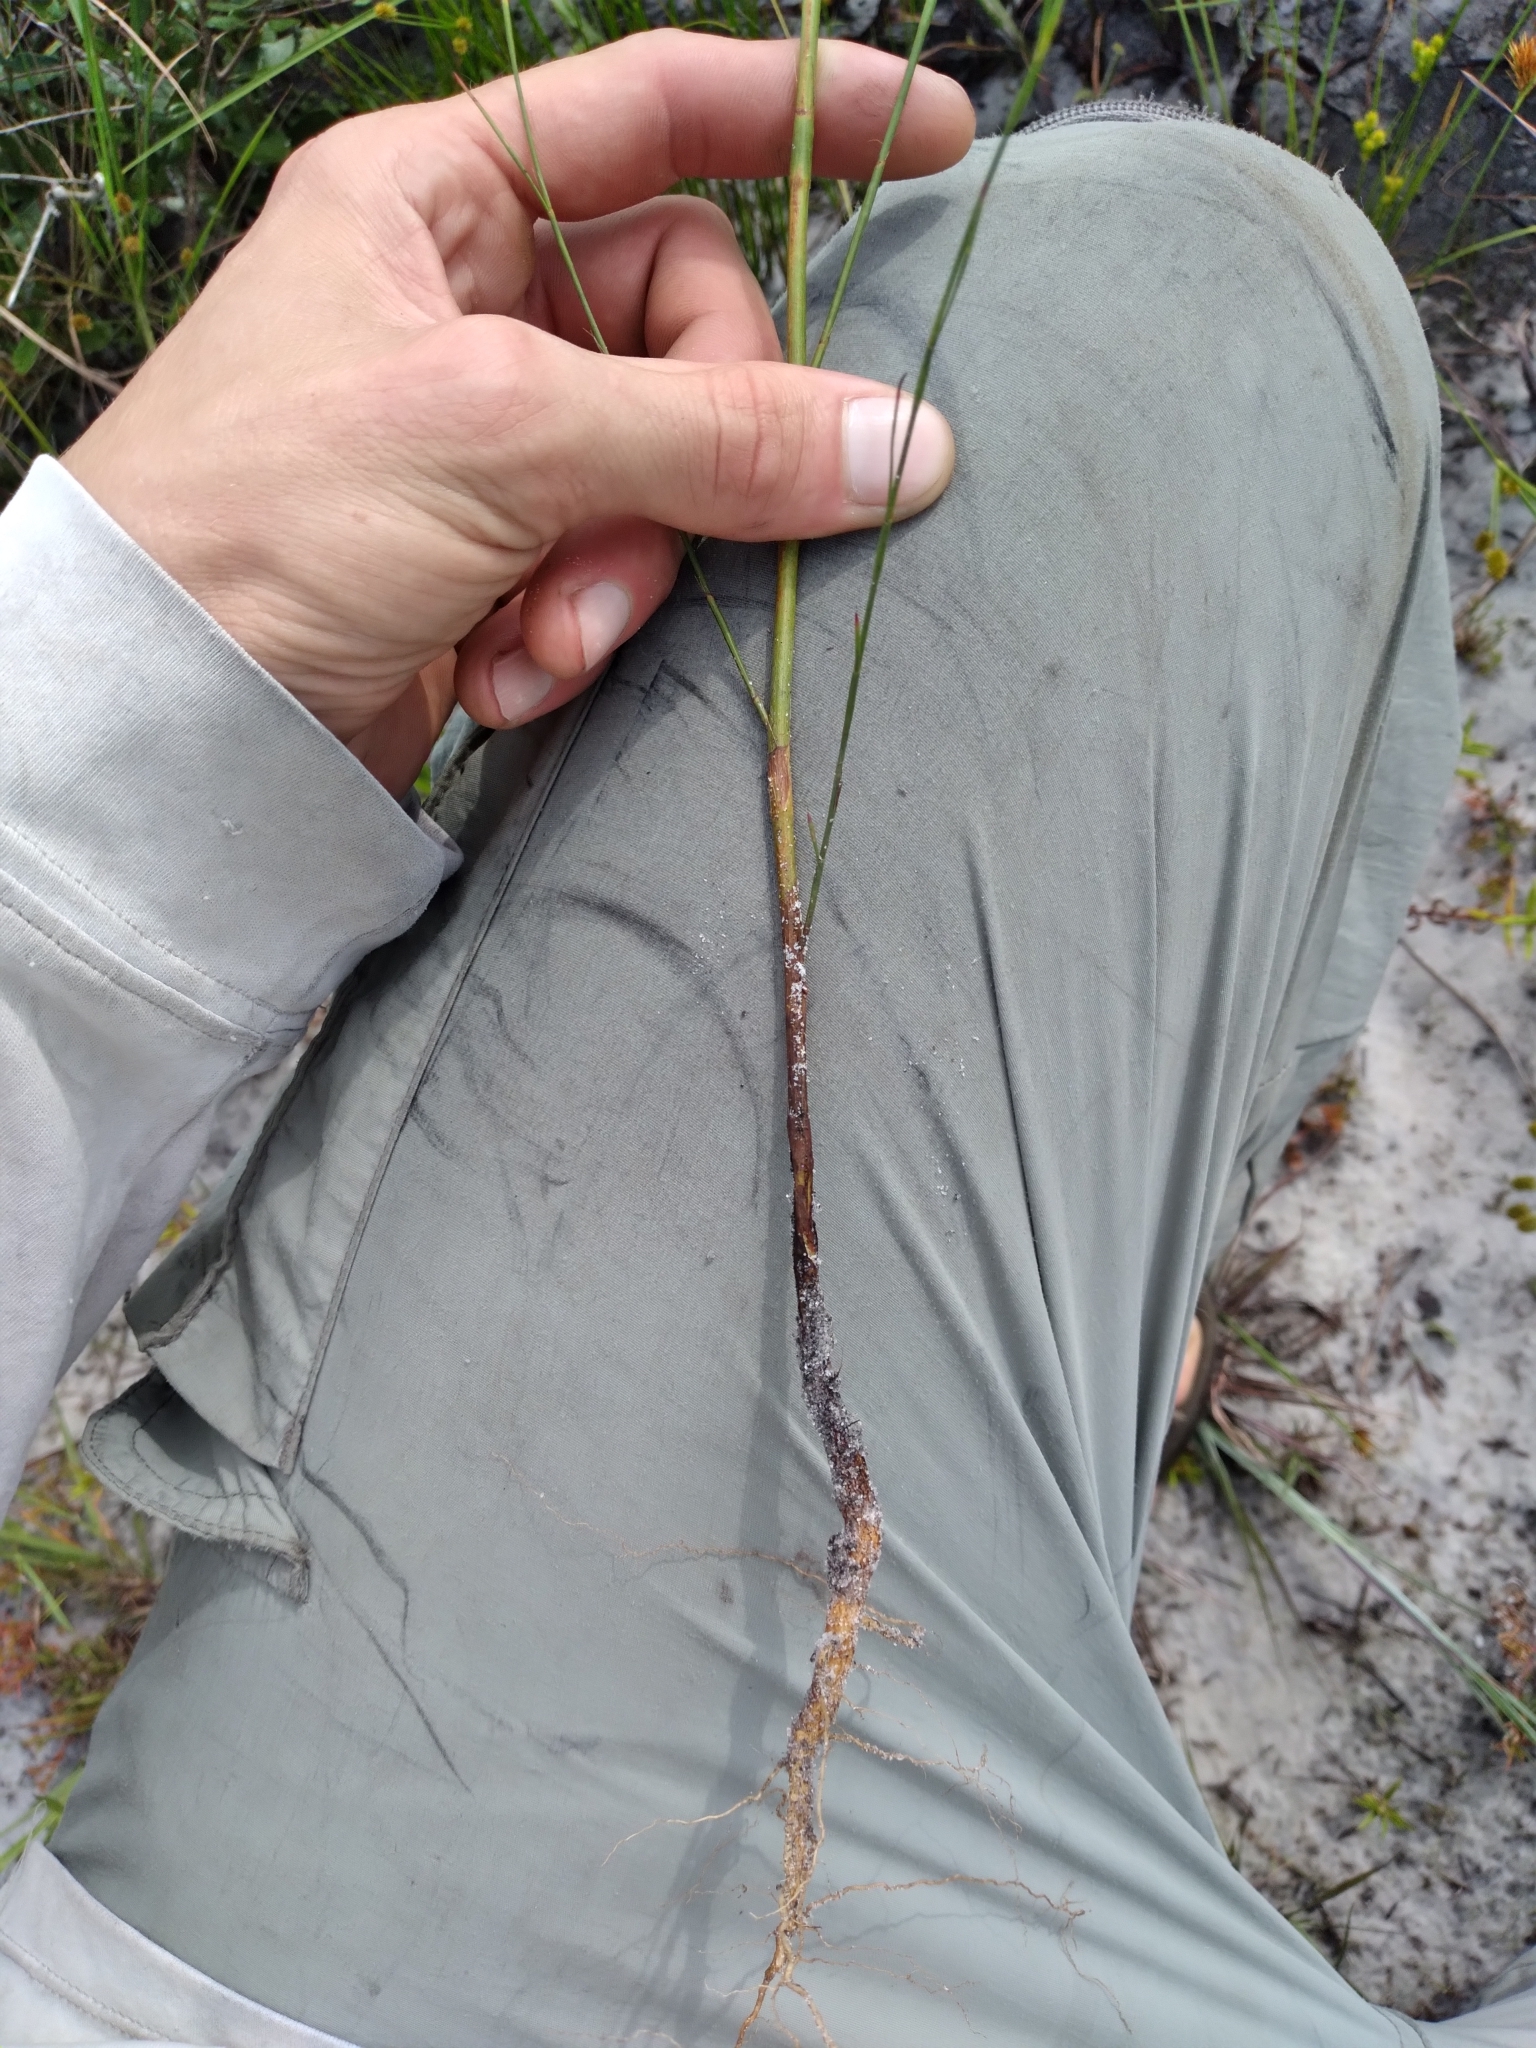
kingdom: Plantae
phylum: Tracheophyta
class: Magnoliopsida
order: Caryophyllales
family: Polygonaceae
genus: Polygonella
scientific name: Polygonella ciliata
